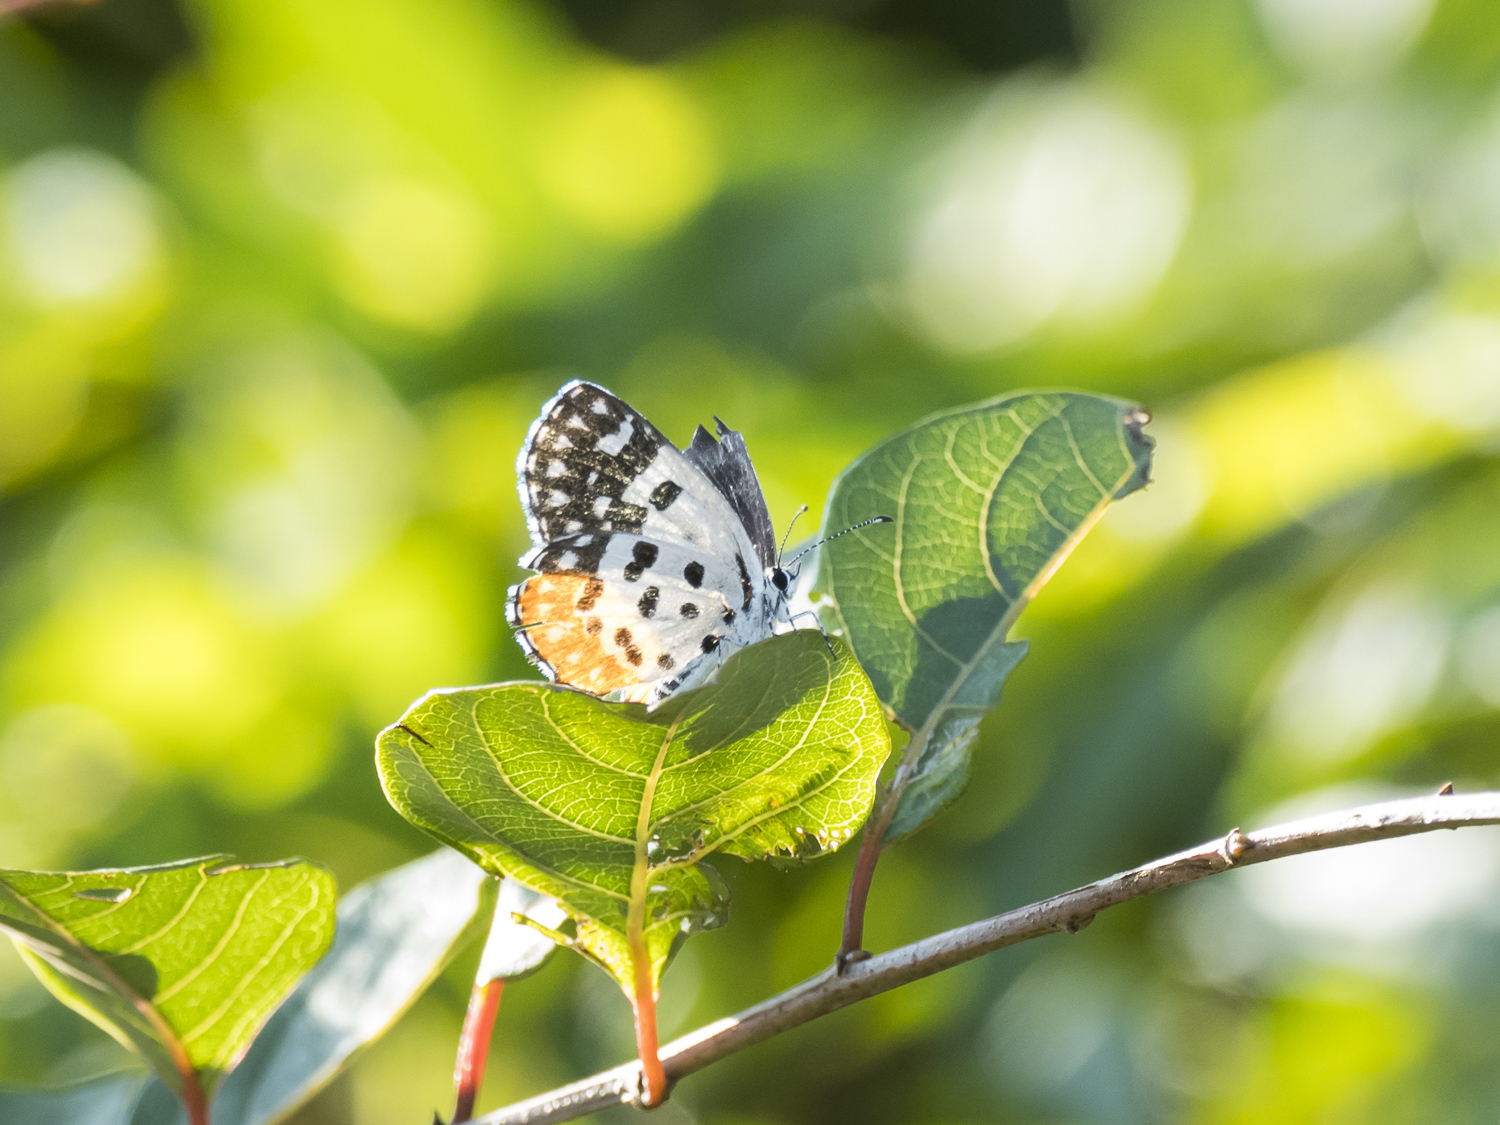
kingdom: Animalia
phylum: Arthropoda
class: Insecta
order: Lepidoptera
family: Lycaenidae
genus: Talicada
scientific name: Talicada nyseus
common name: Red pierrot
